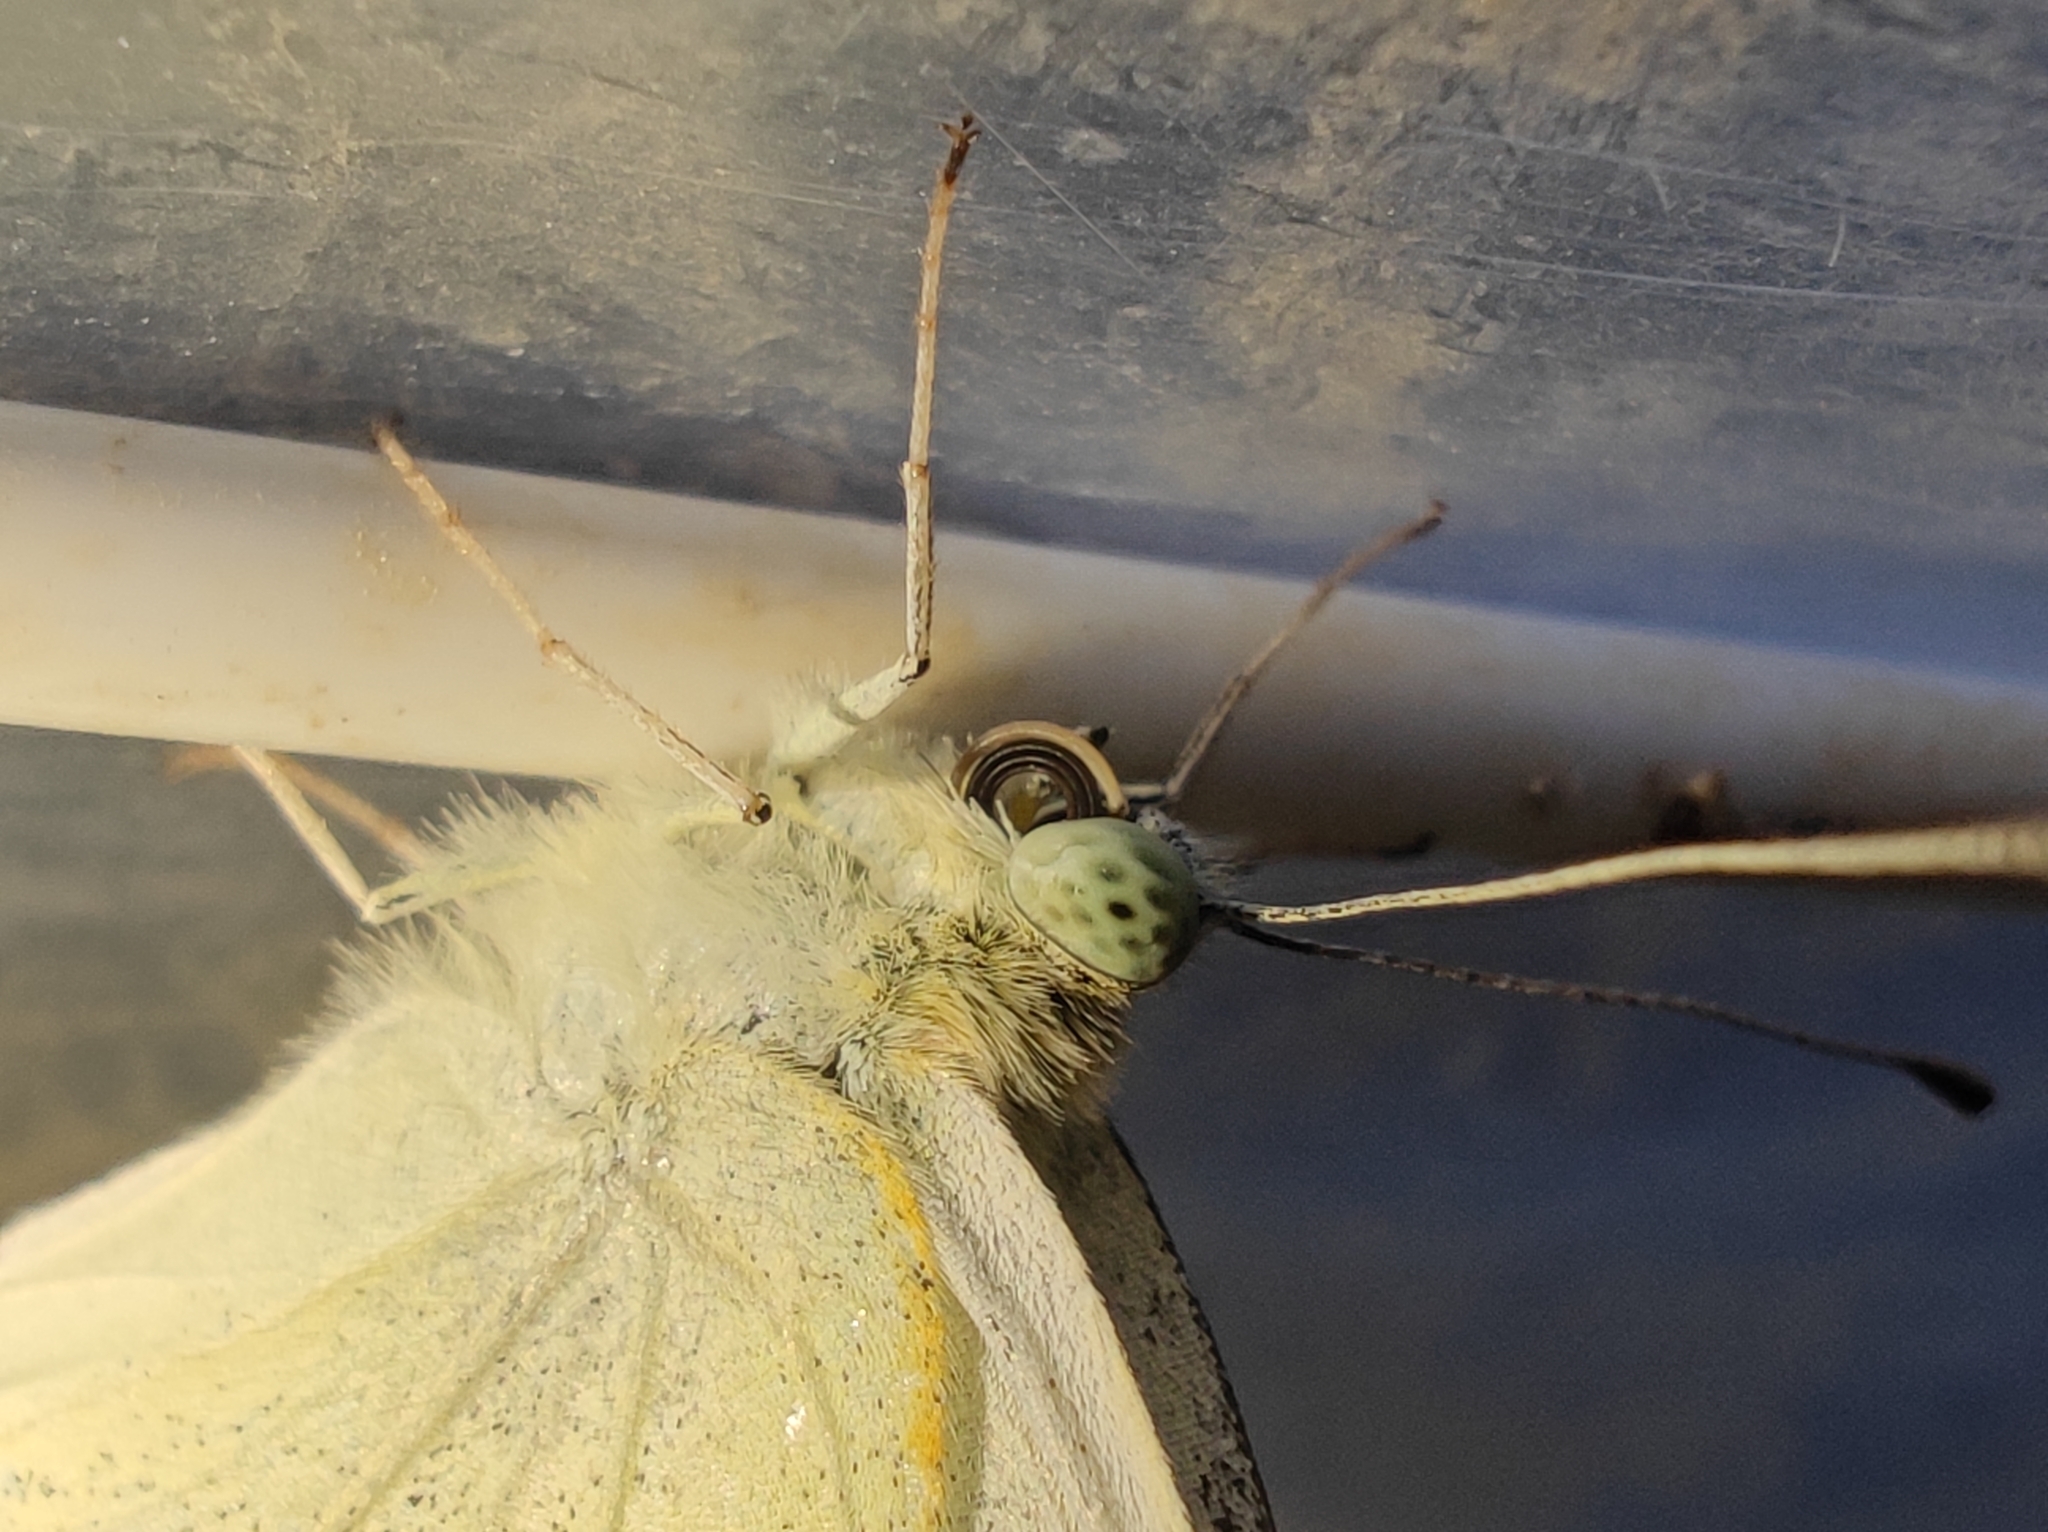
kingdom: Animalia
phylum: Arthropoda
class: Insecta
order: Lepidoptera
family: Pieridae
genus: Pieris
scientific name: Pieris rapae
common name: Small white
